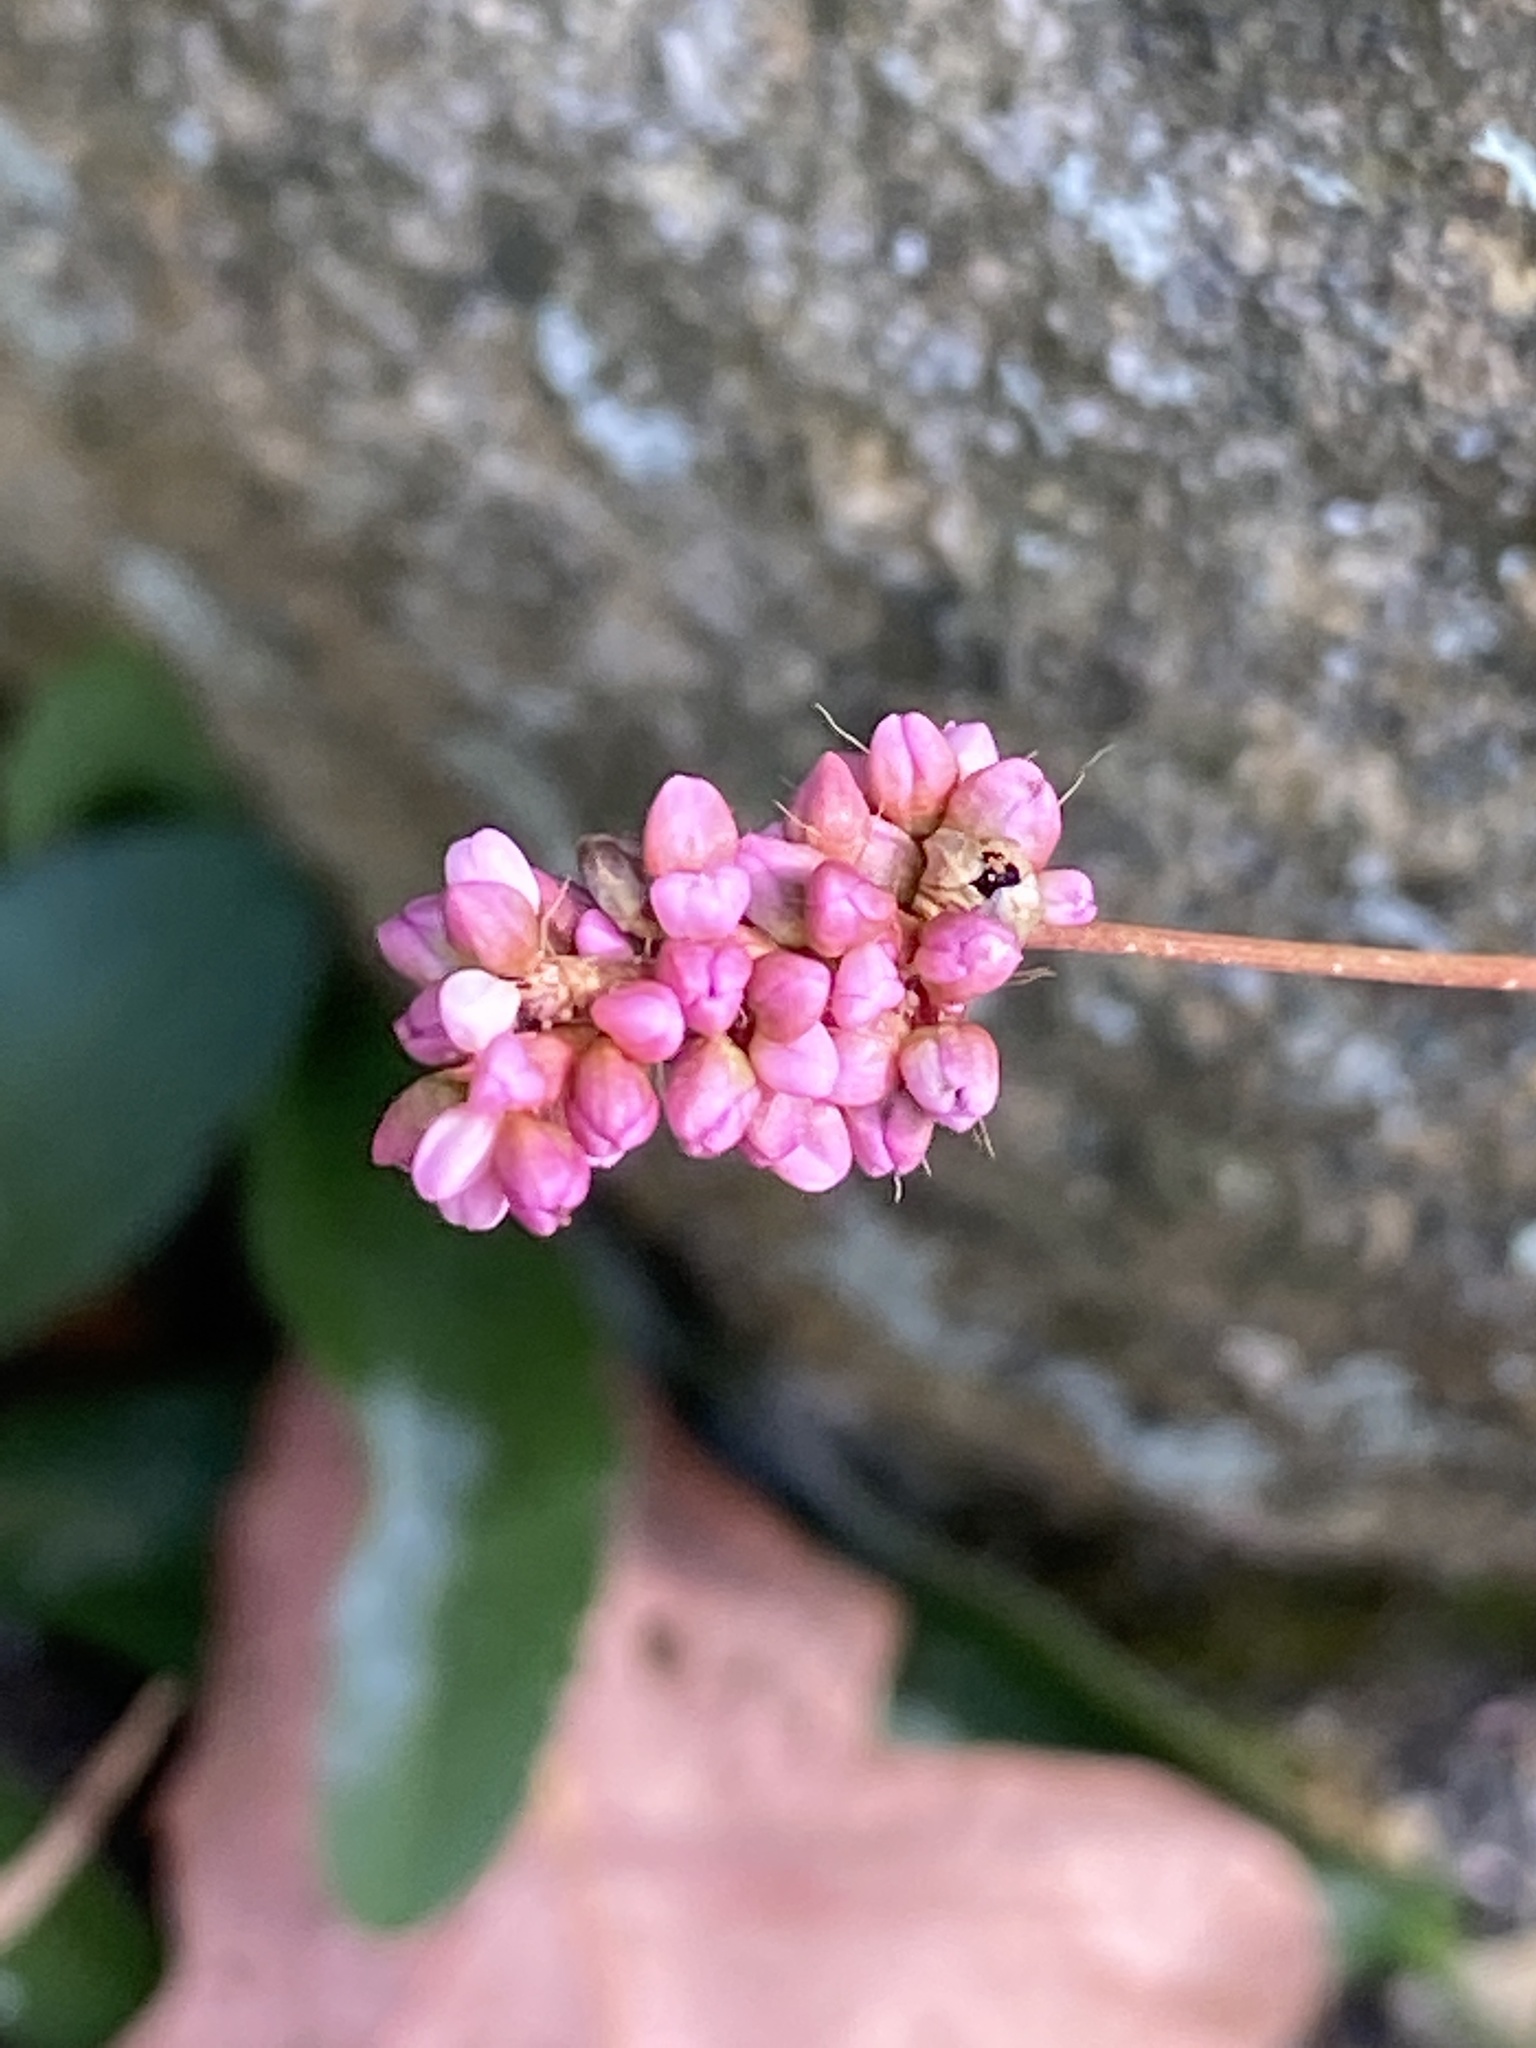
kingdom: Plantae
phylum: Tracheophyta
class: Magnoliopsida
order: Caryophyllales
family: Polygonaceae
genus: Persicaria
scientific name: Persicaria longiseta
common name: Bristly lady's-thumb
